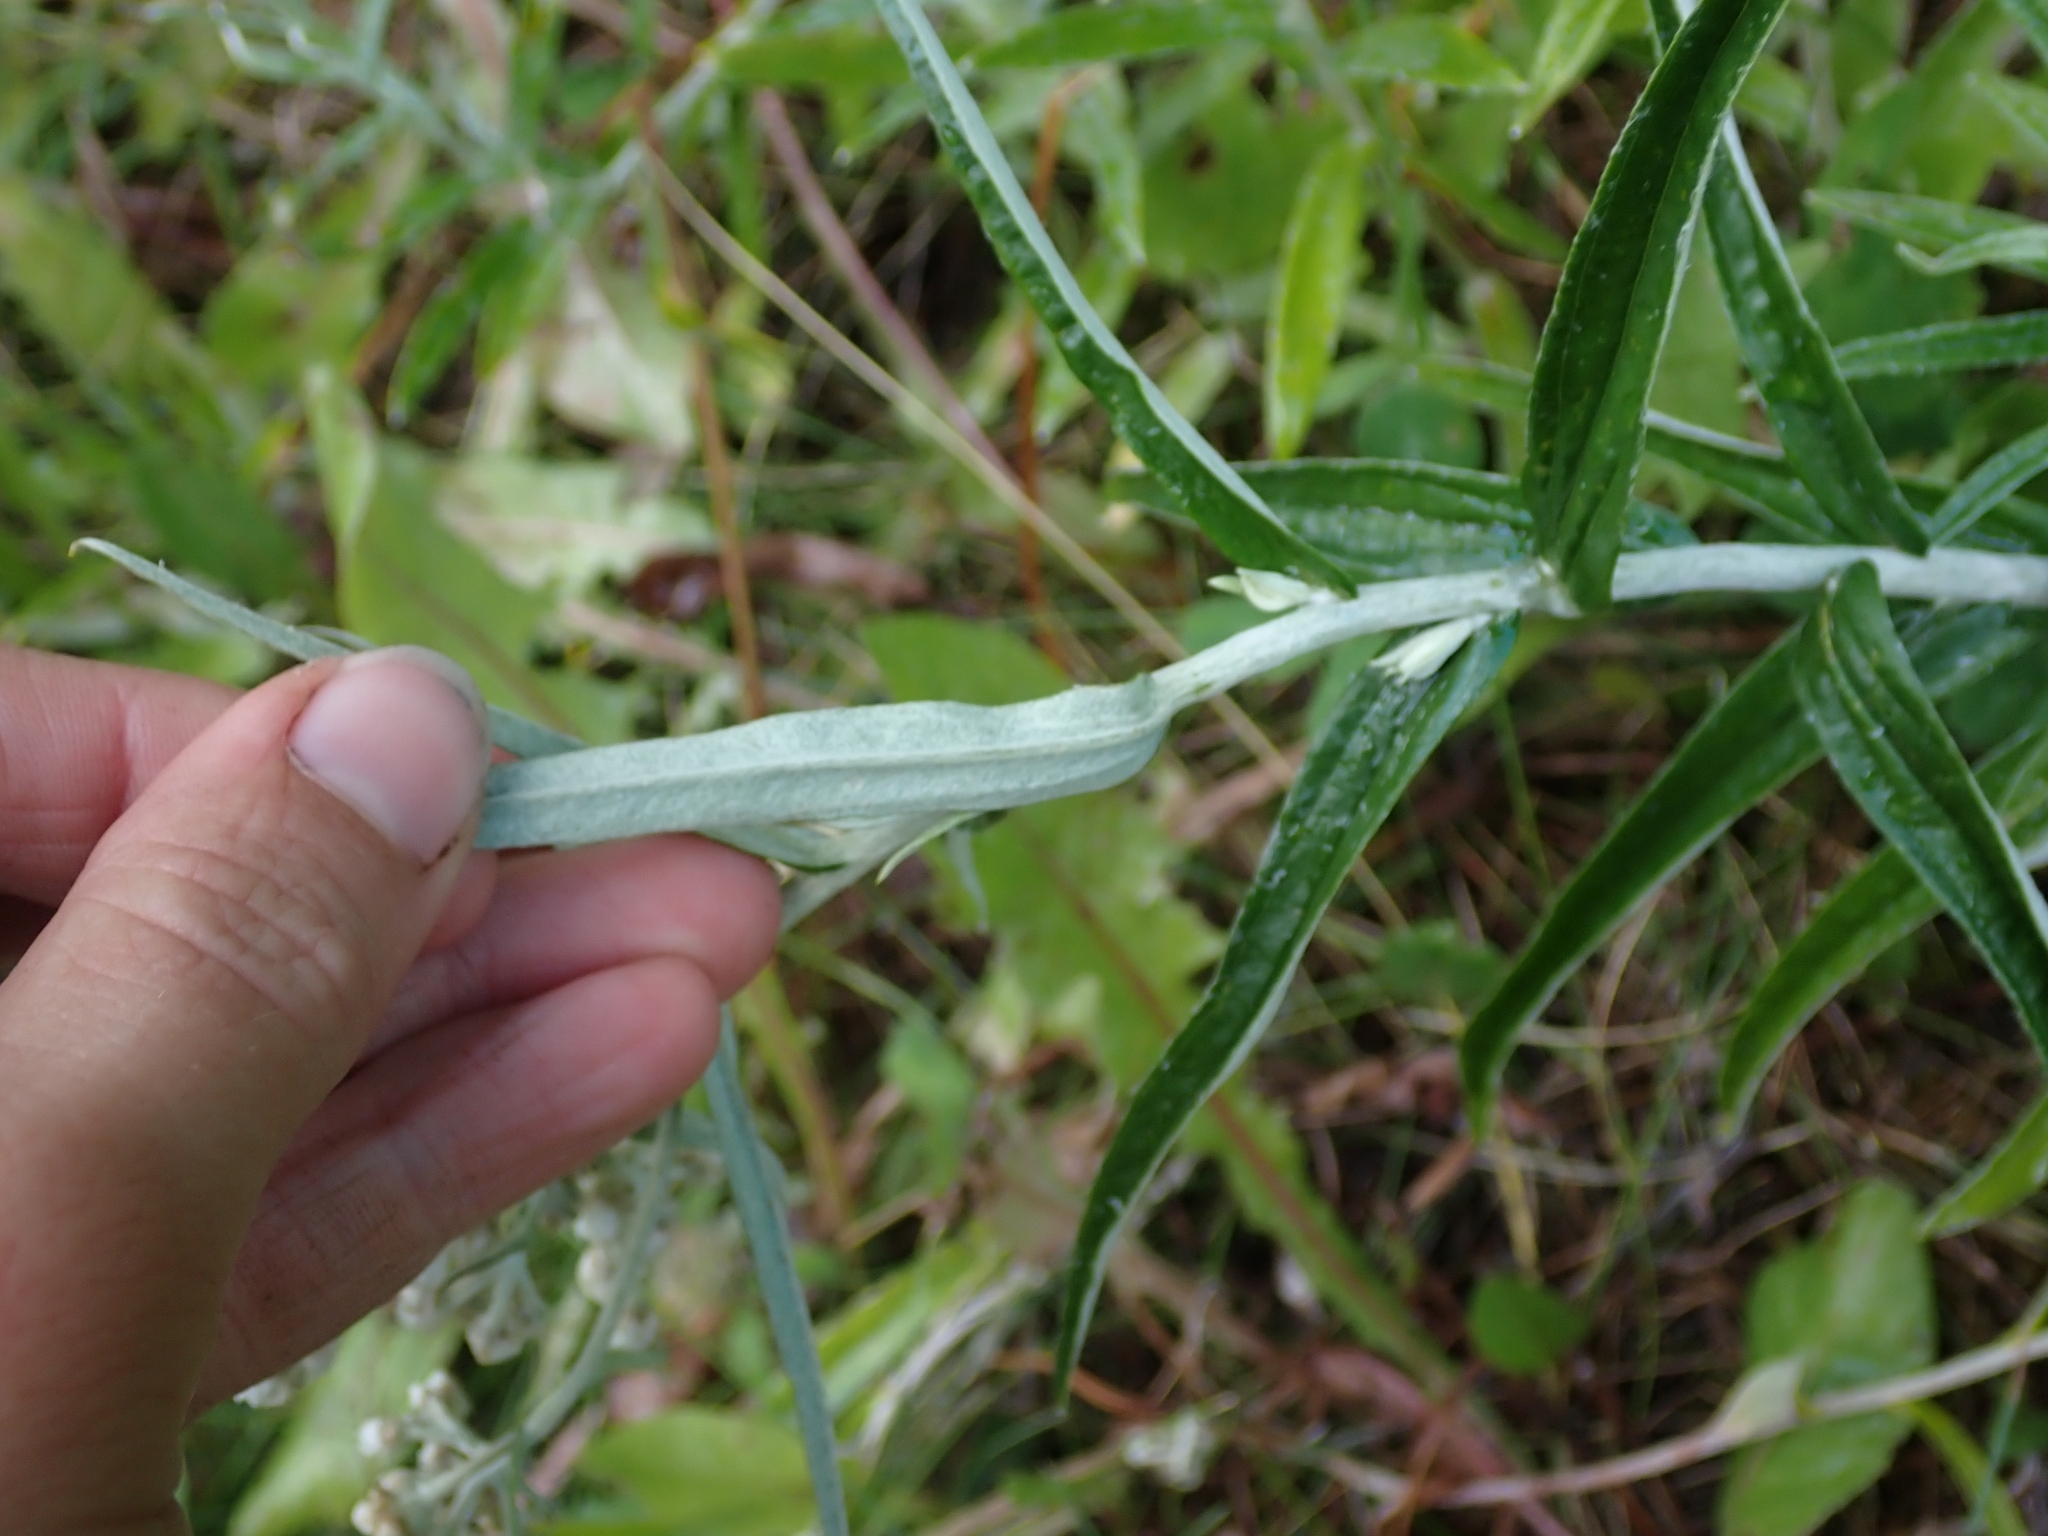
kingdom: Plantae
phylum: Tracheophyta
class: Magnoliopsida
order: Asterales
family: Asteraceae
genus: Anaphalis
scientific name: Anaphalis margaritacea
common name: Pearly everlasting
